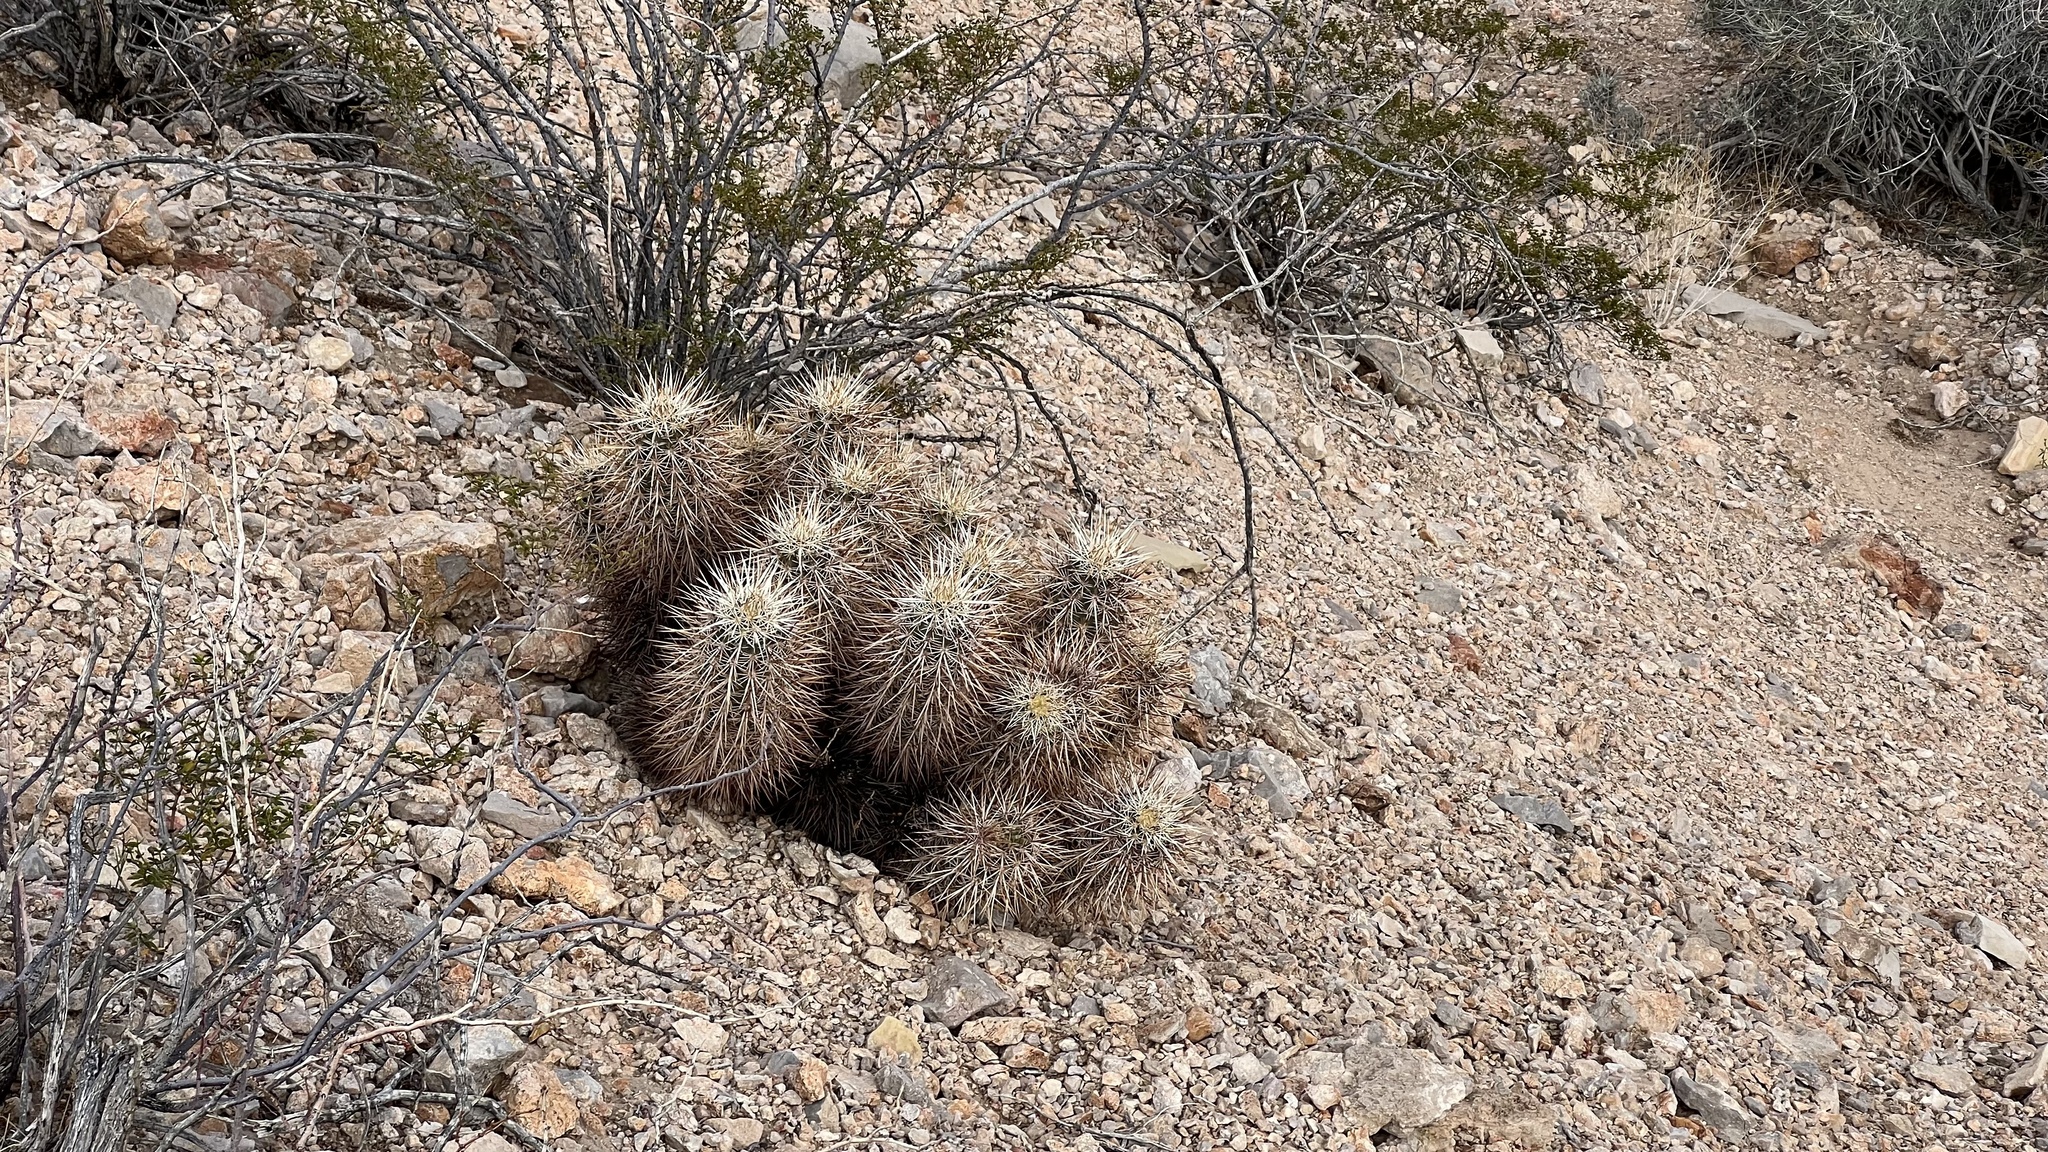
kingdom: Plantae
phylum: Tracheophyta
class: Magnoliopsida
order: Caryophyllales
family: Cactaceae
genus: Echinocereus
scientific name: Echinocereus engelmannii
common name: Engelmann's hedgehog cactus
